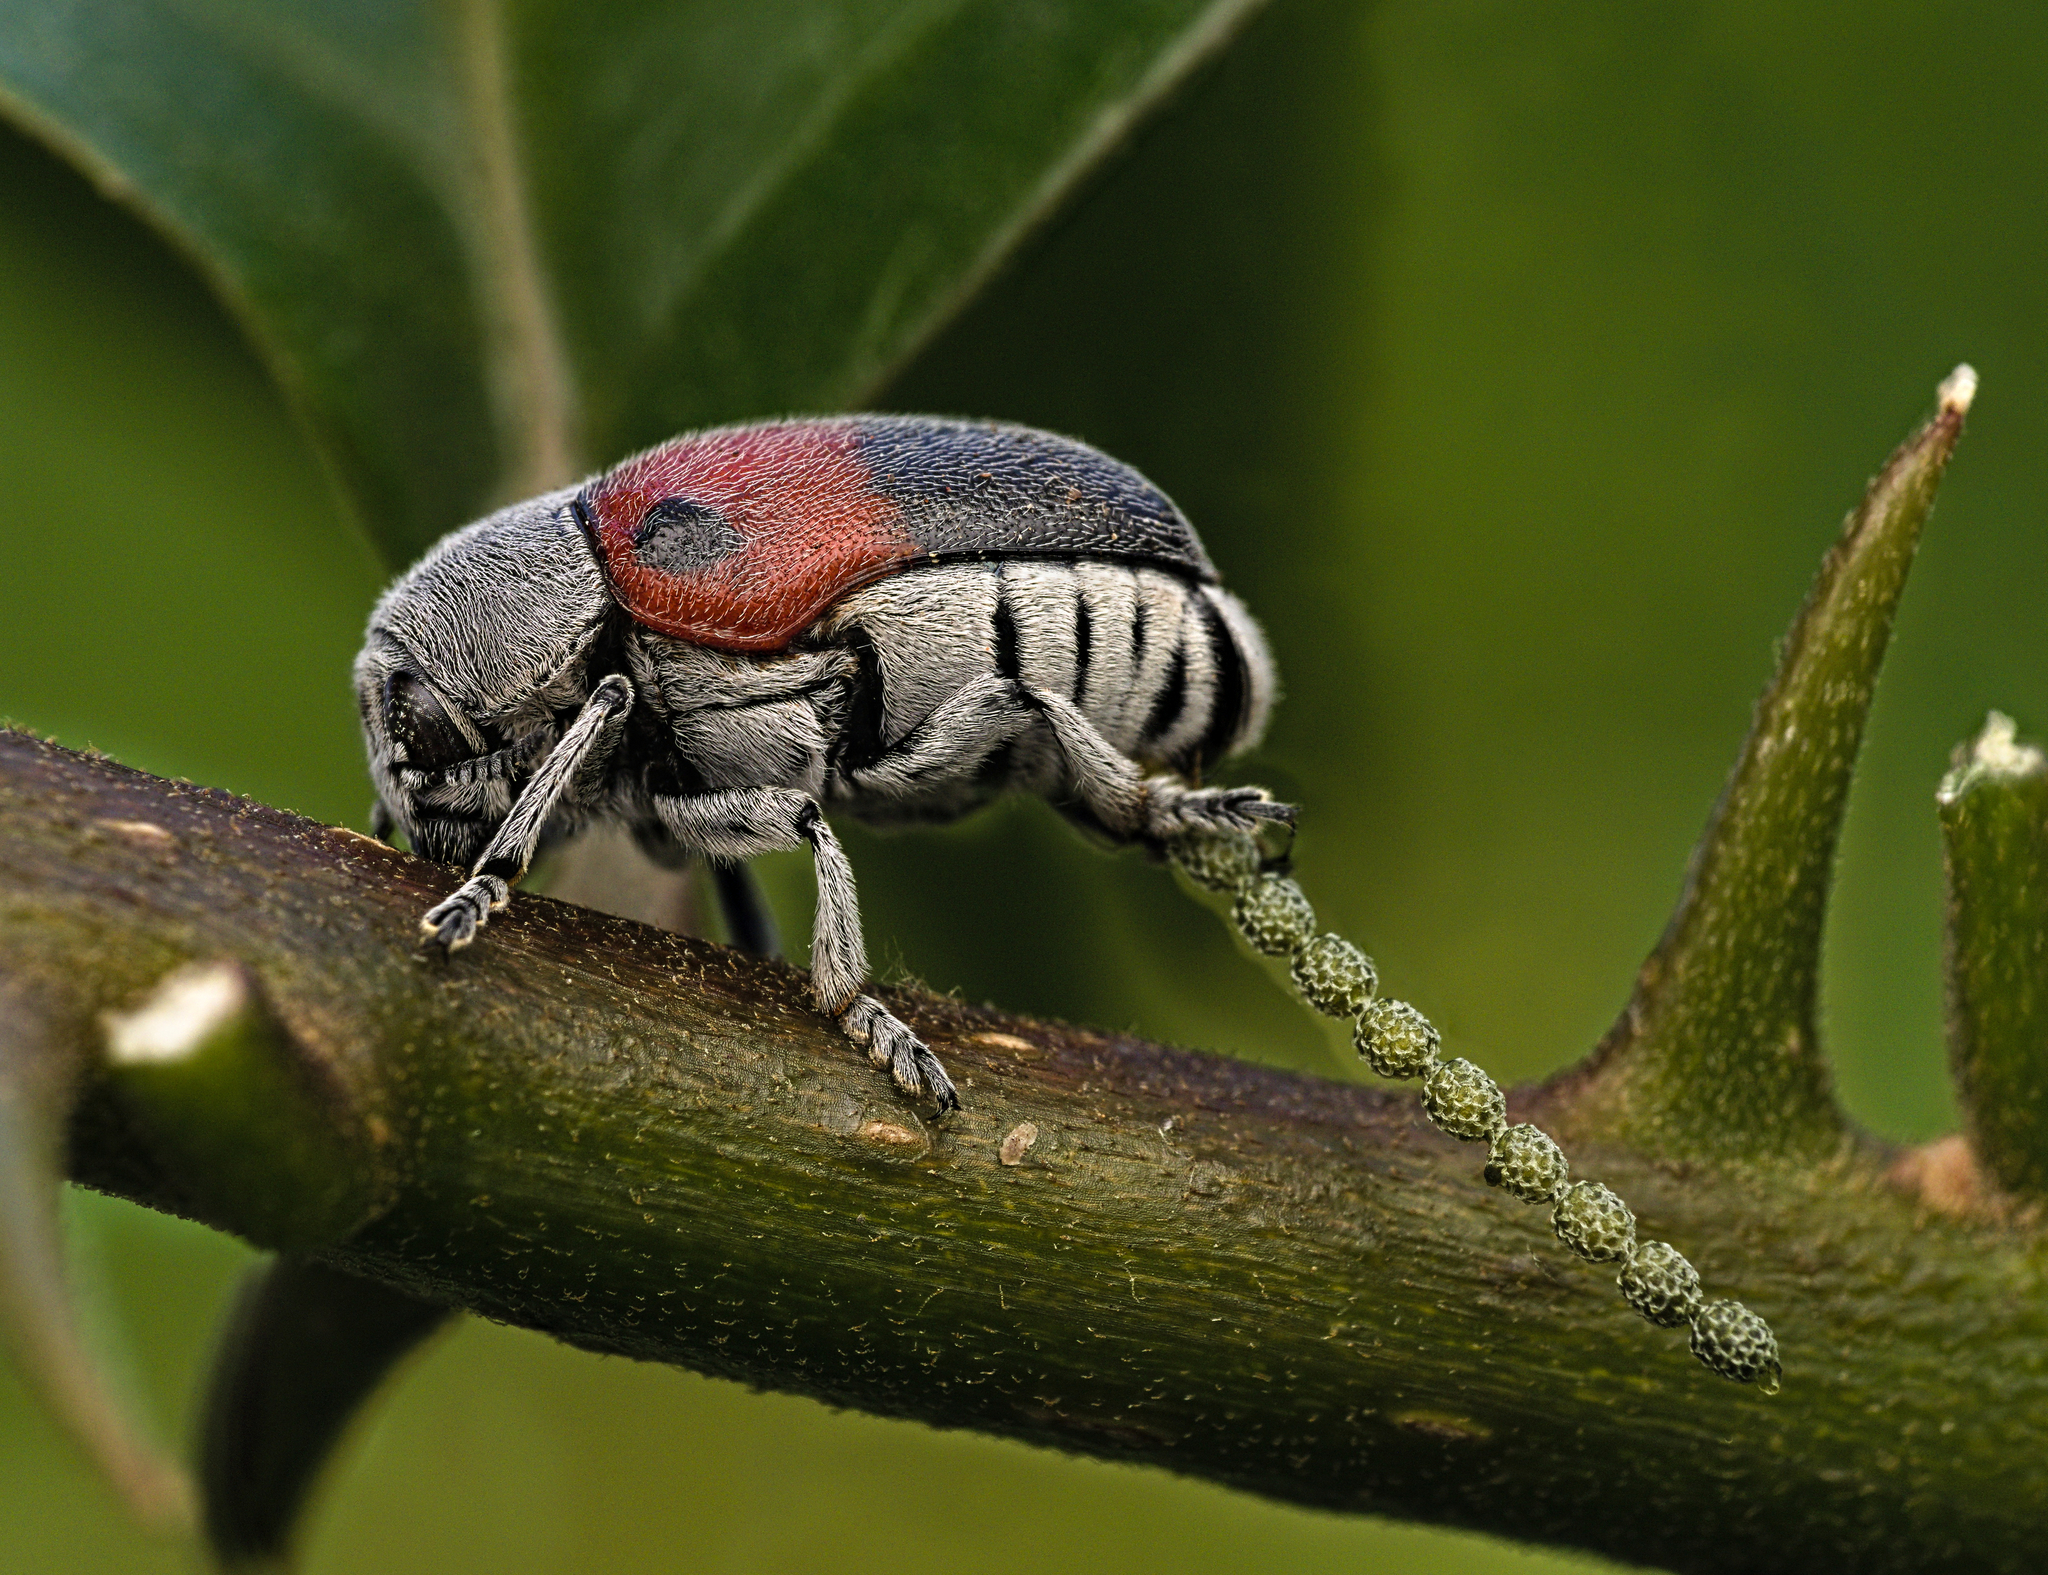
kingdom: Animalia
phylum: Arthropoda
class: Insecta
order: Coleoptera
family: Chrysomelidae
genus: Megalostomis
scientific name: Megalostomis dimidiata
